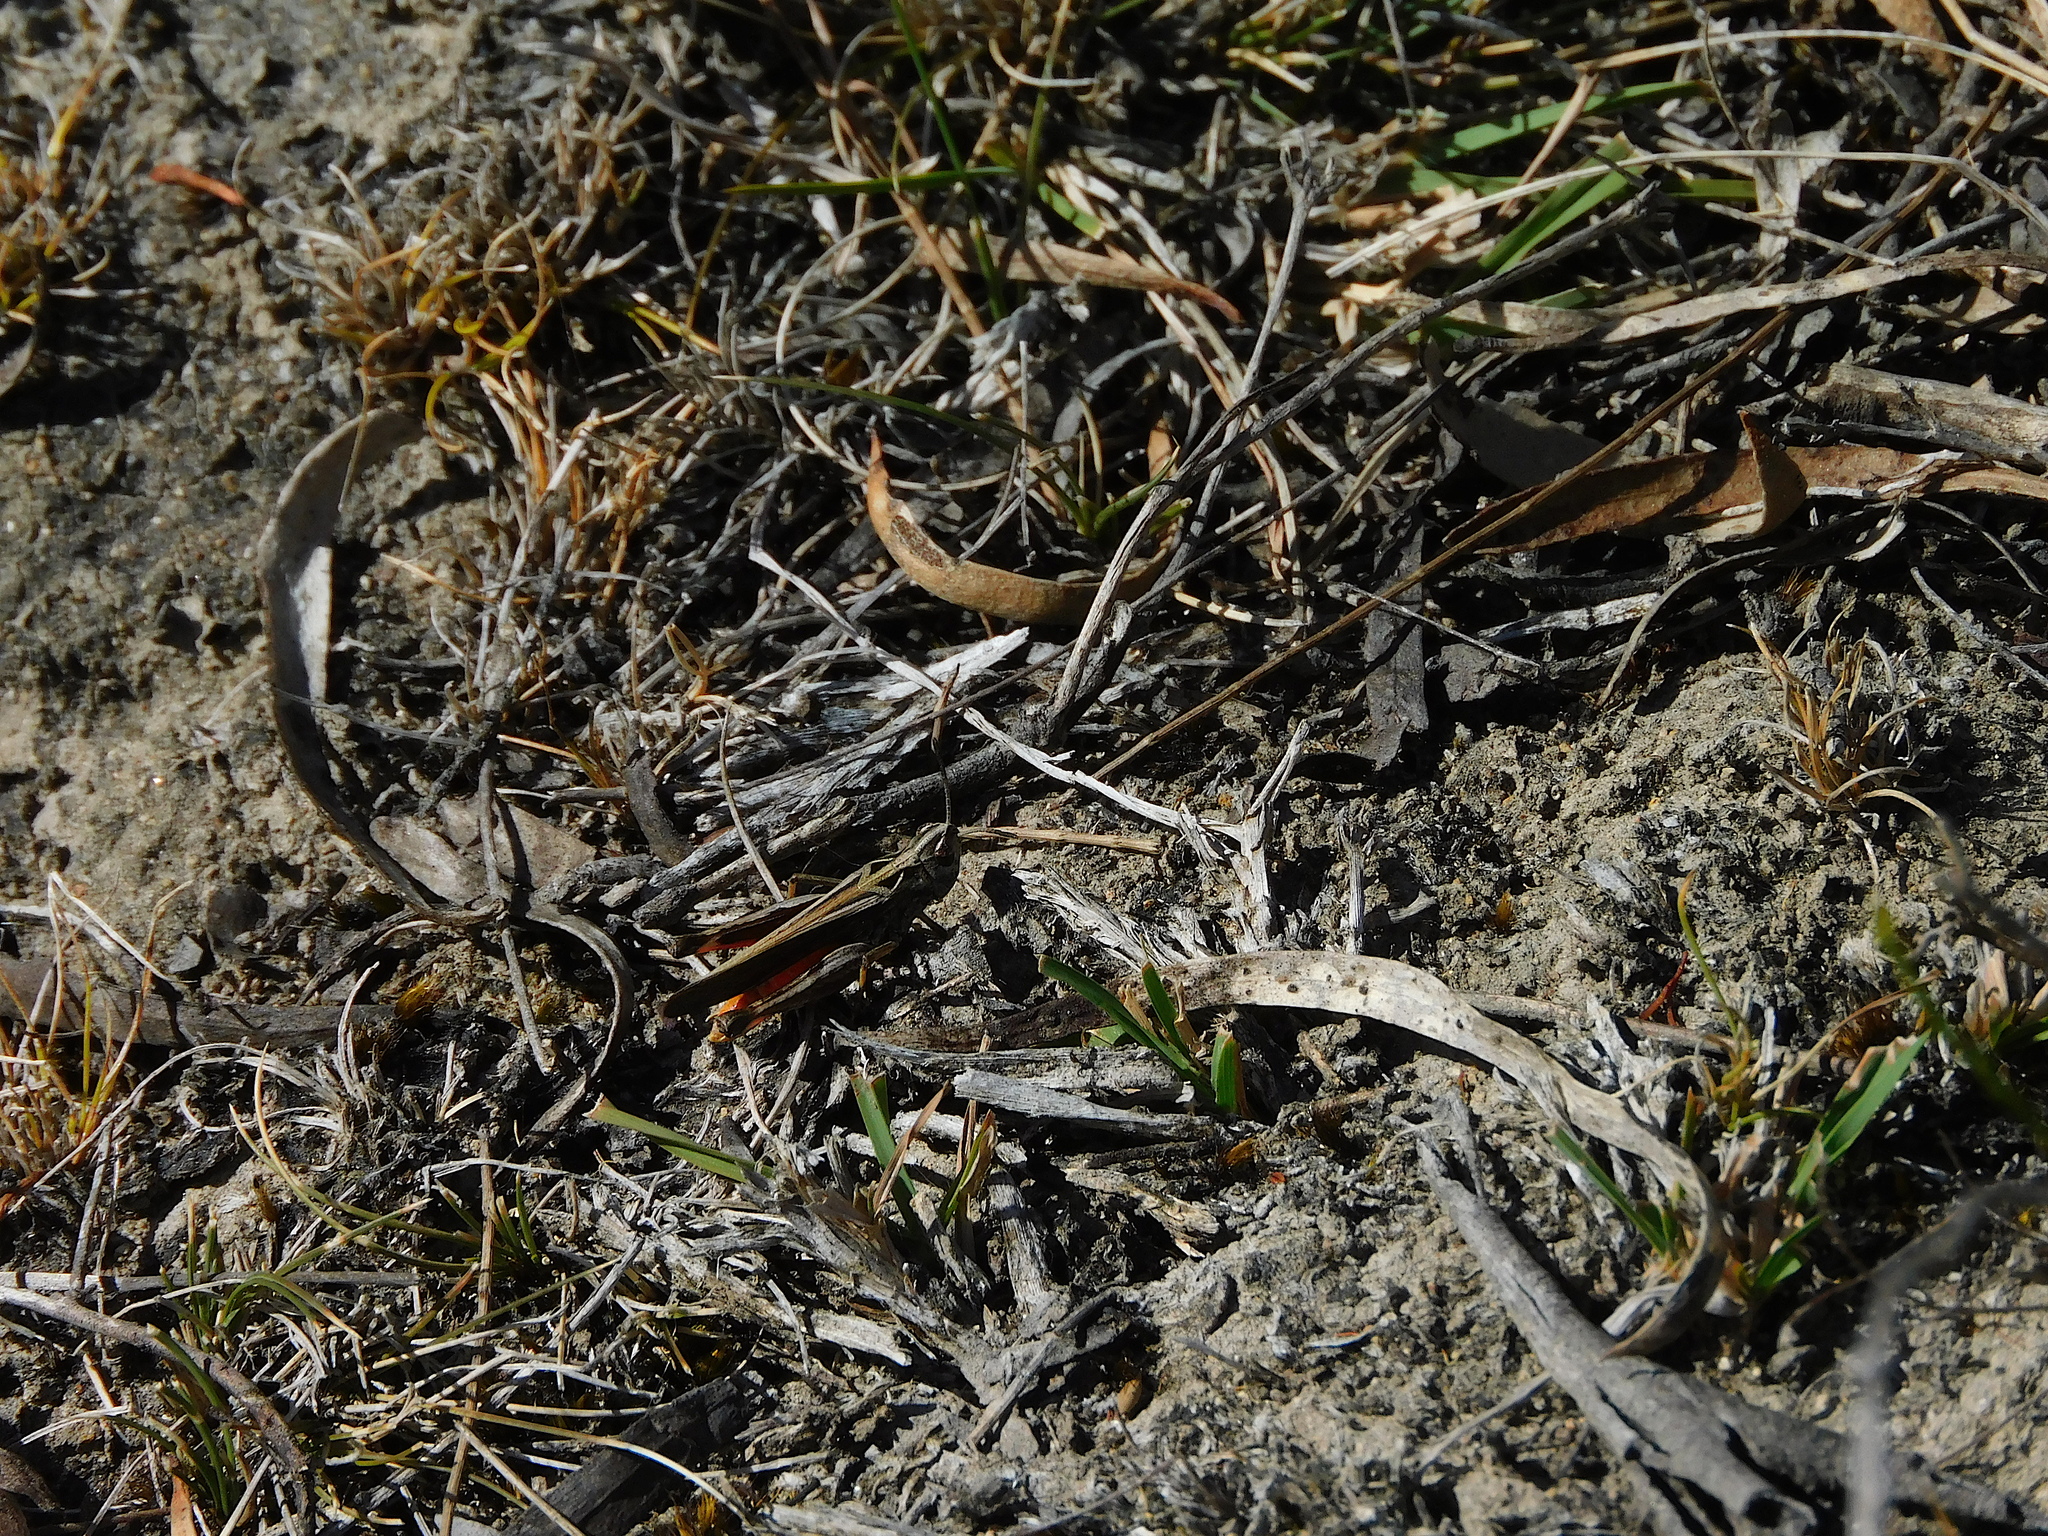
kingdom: Animalia
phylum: Arthropoda
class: Insecta
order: Orthoptera
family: Acrididae
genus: Cryptobothrus
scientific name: Cryptobothrus chrysophorus
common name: Golden bandwing
